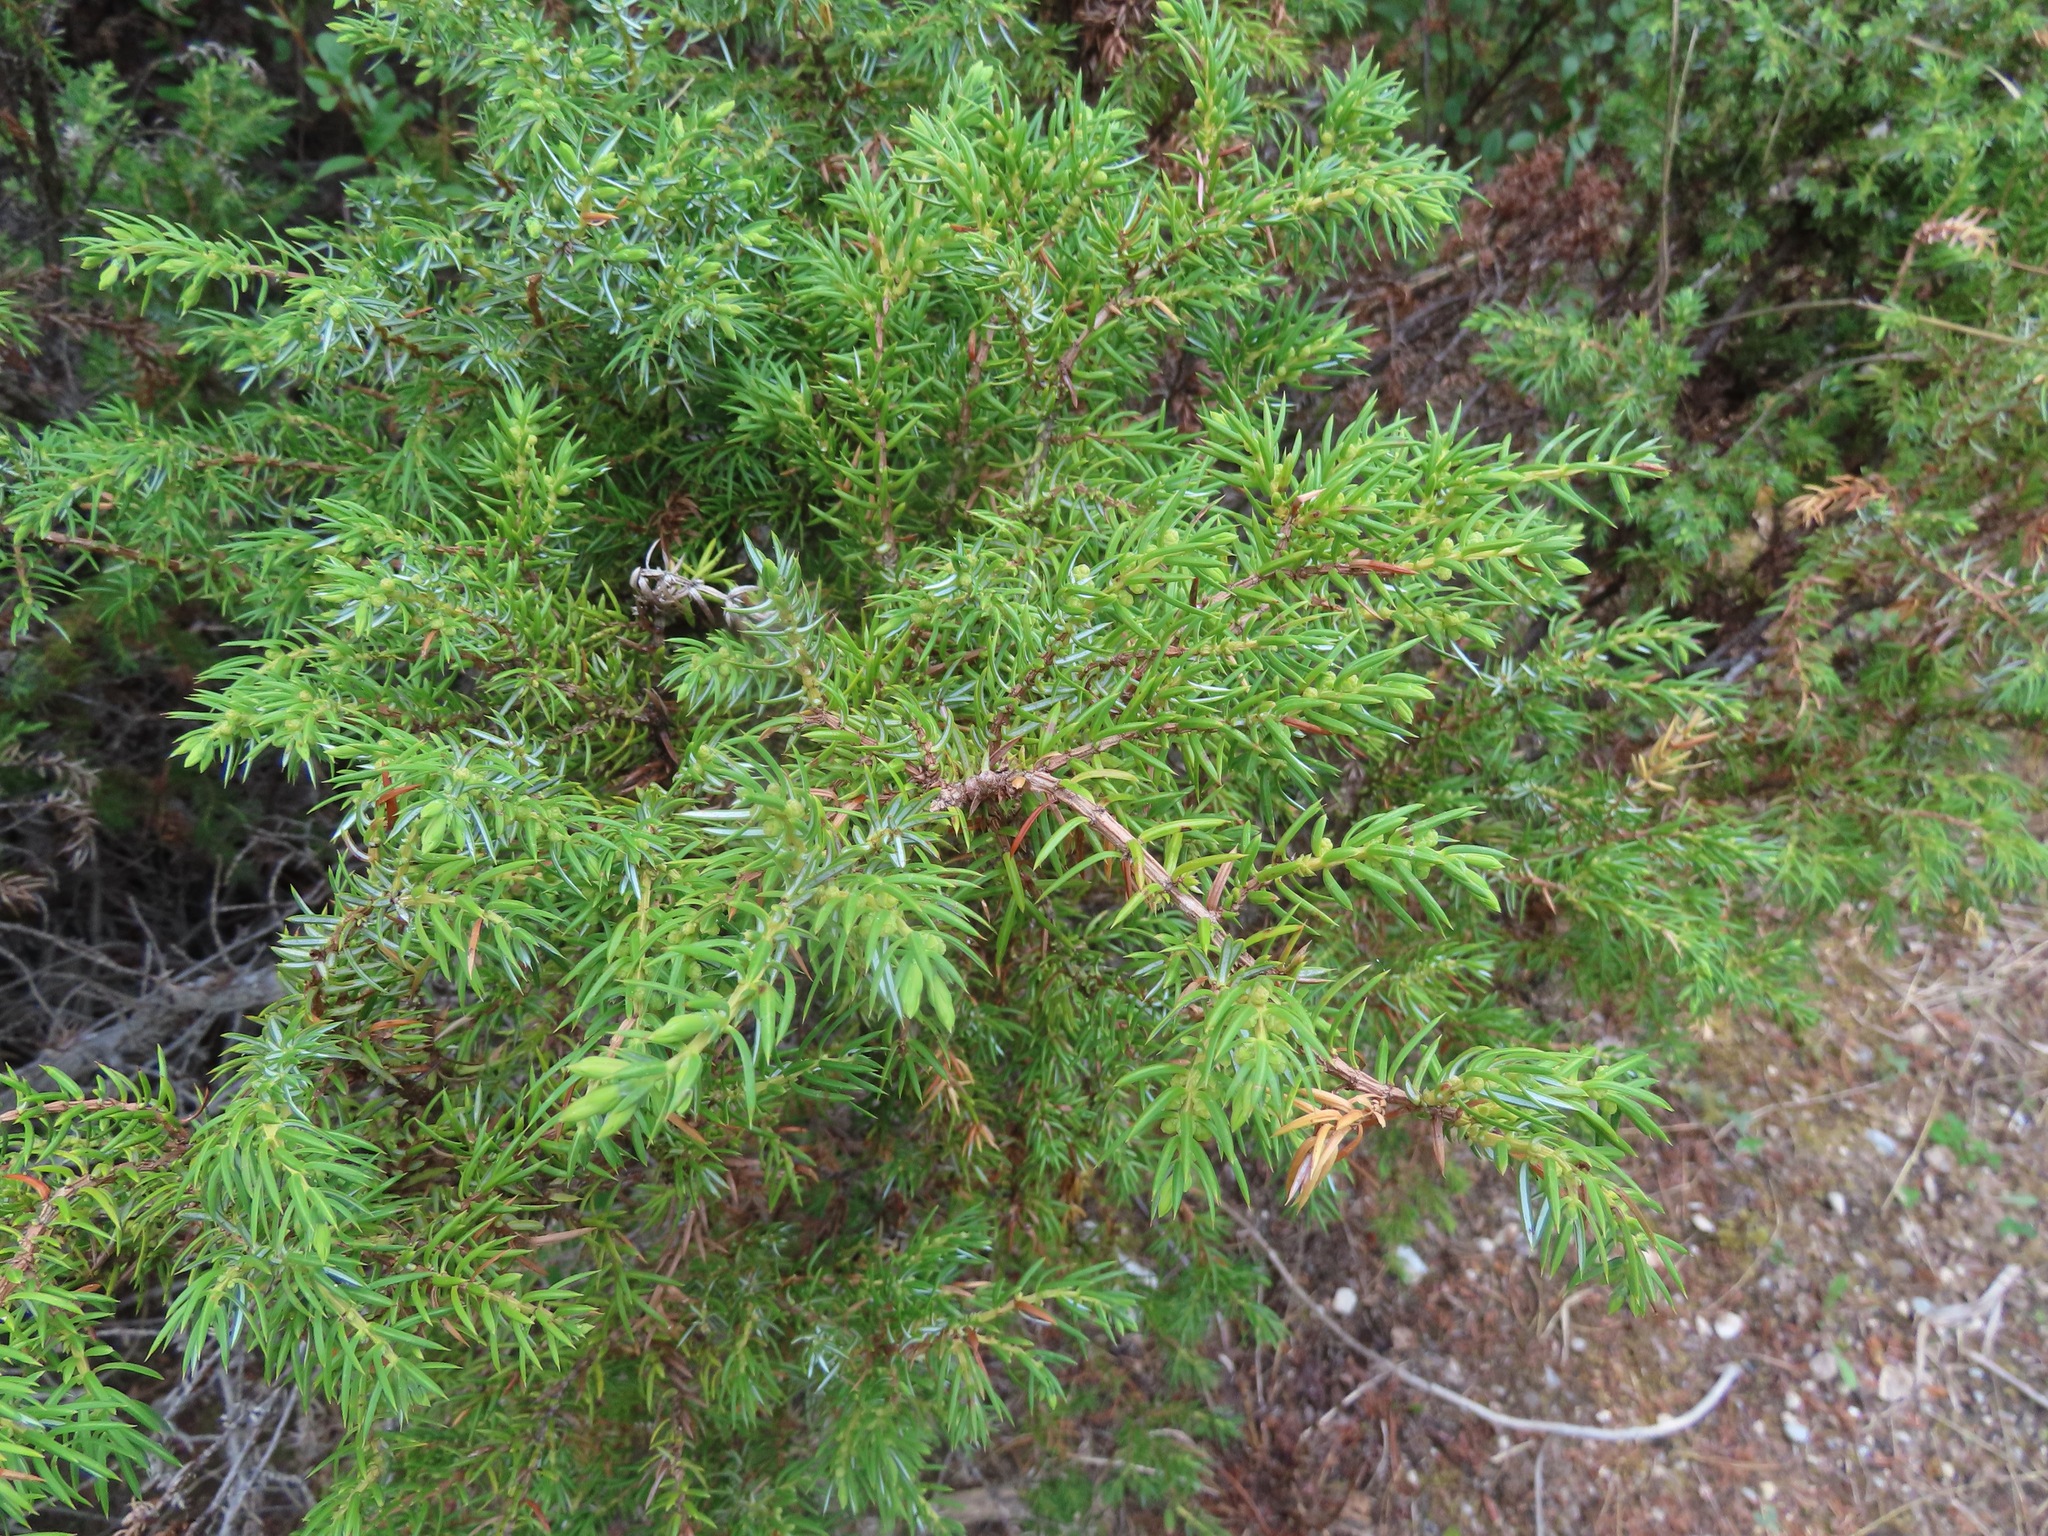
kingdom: Plantae
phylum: Tracheophyta
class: Pinopsida
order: Pinales
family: Cupressaceae
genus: Juniperus
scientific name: Juniperus communis
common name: Common juniper
